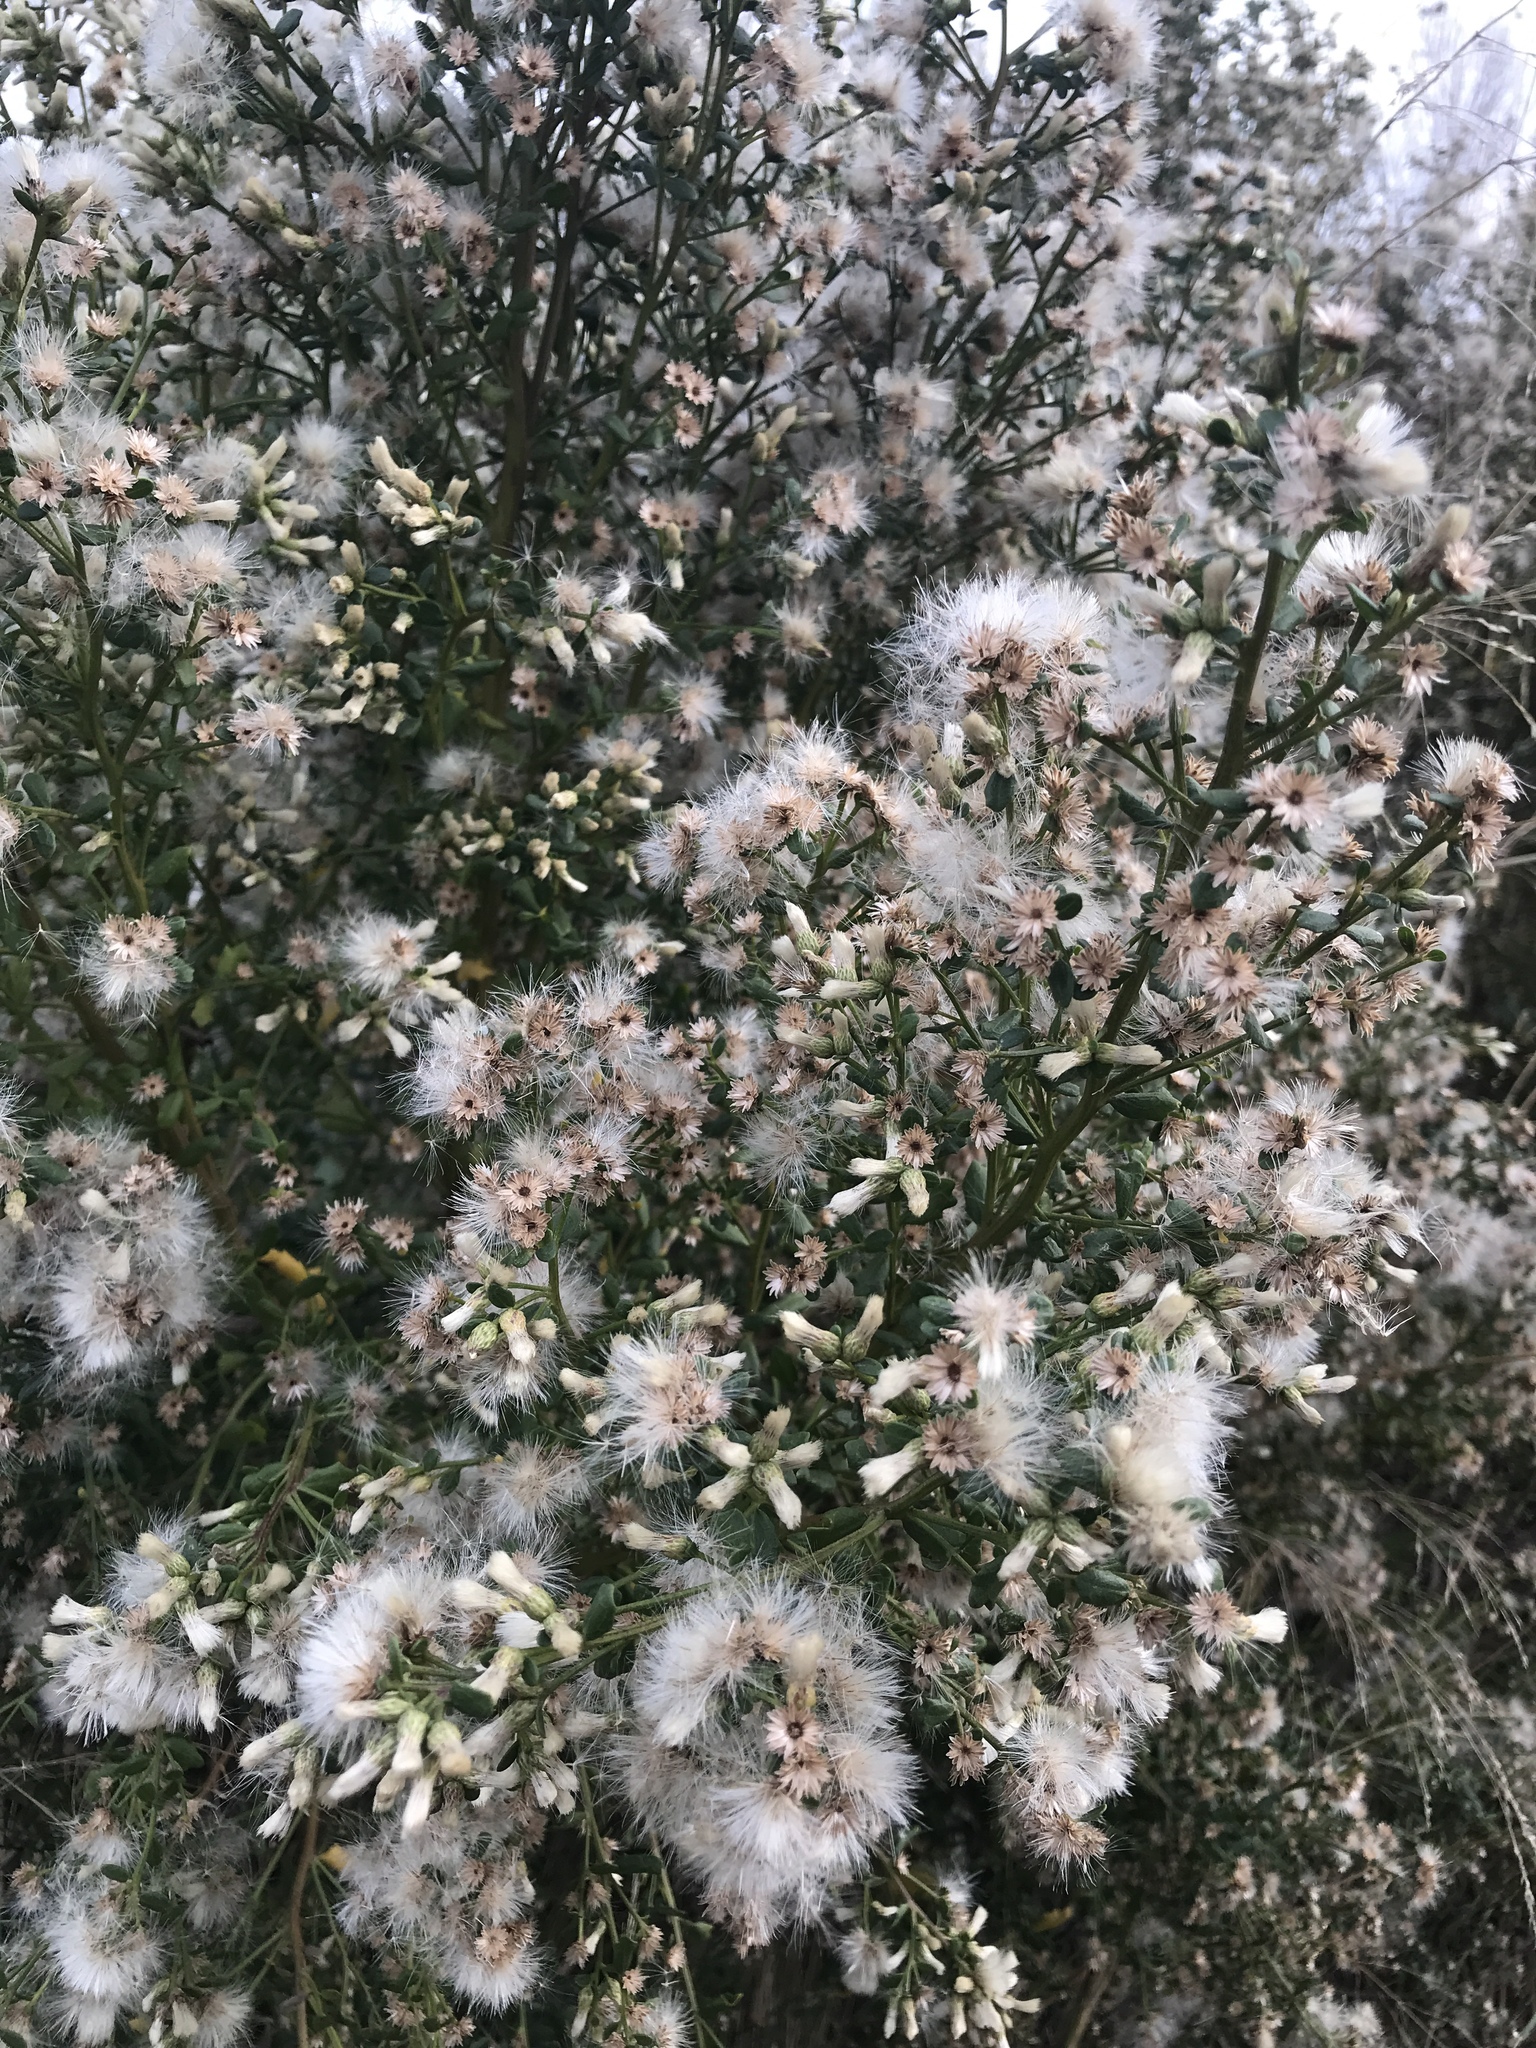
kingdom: Plantae
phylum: Tracheophyta
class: Magnoliopsida
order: Asterales
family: Asteraceae
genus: Baccharis
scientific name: Baccharis pilularis
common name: Coyotebrush
